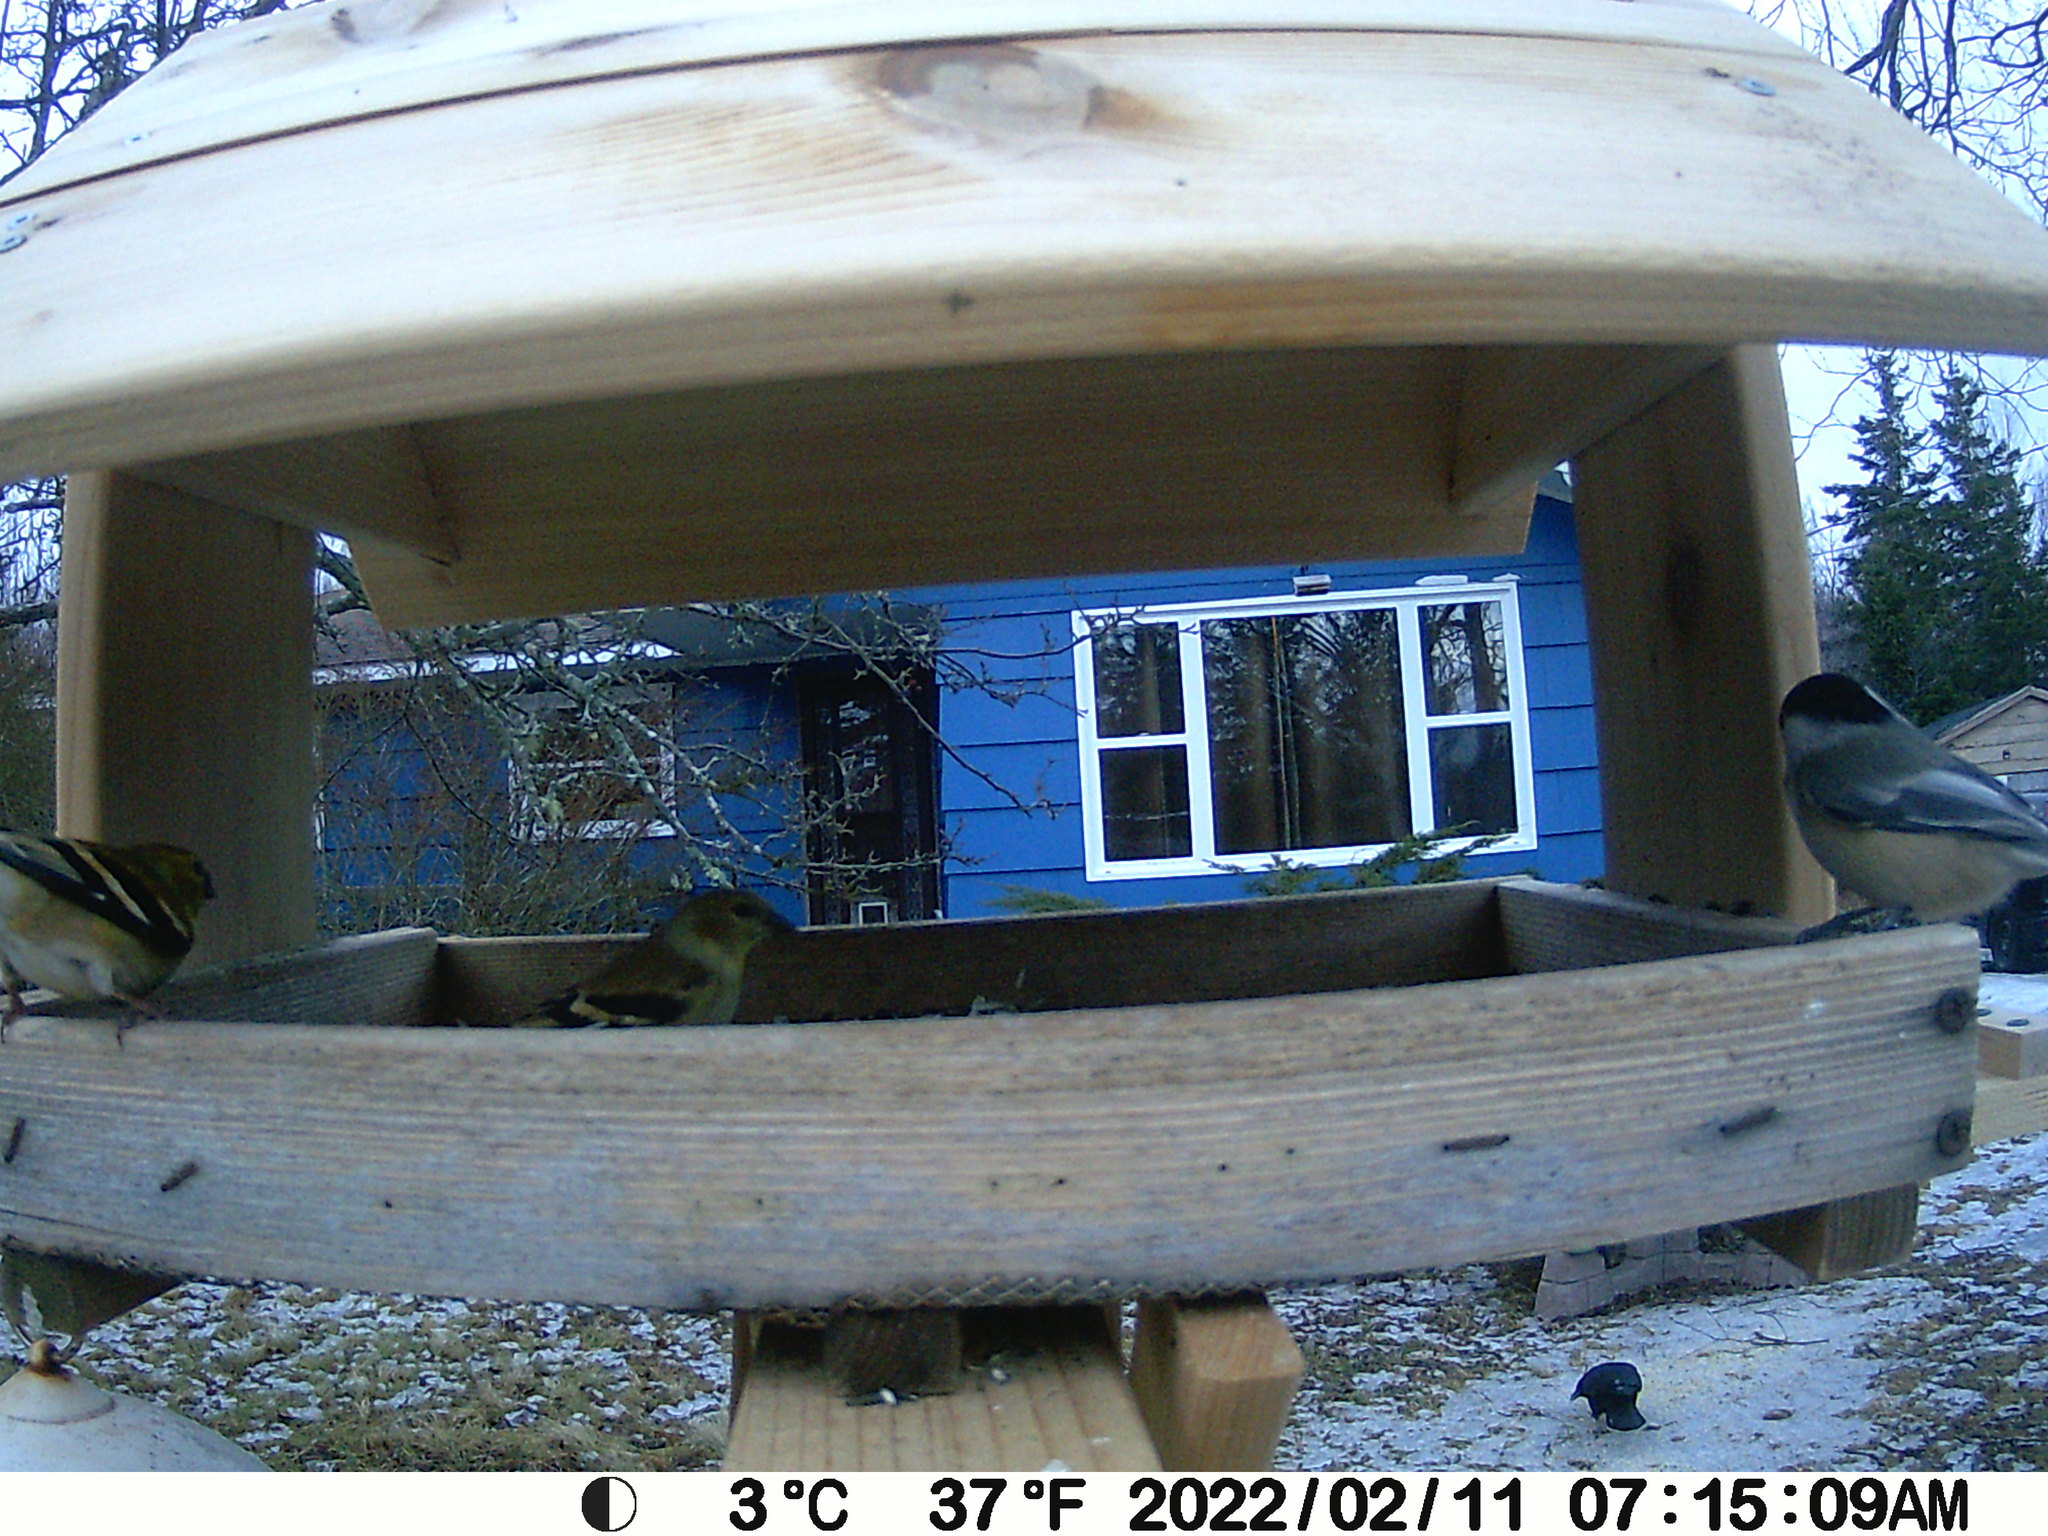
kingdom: Animalia
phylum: Chordata
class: Aves
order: Passeriformes
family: Fringillidae
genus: Spinus
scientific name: Spinus tristis
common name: American goldfinch
